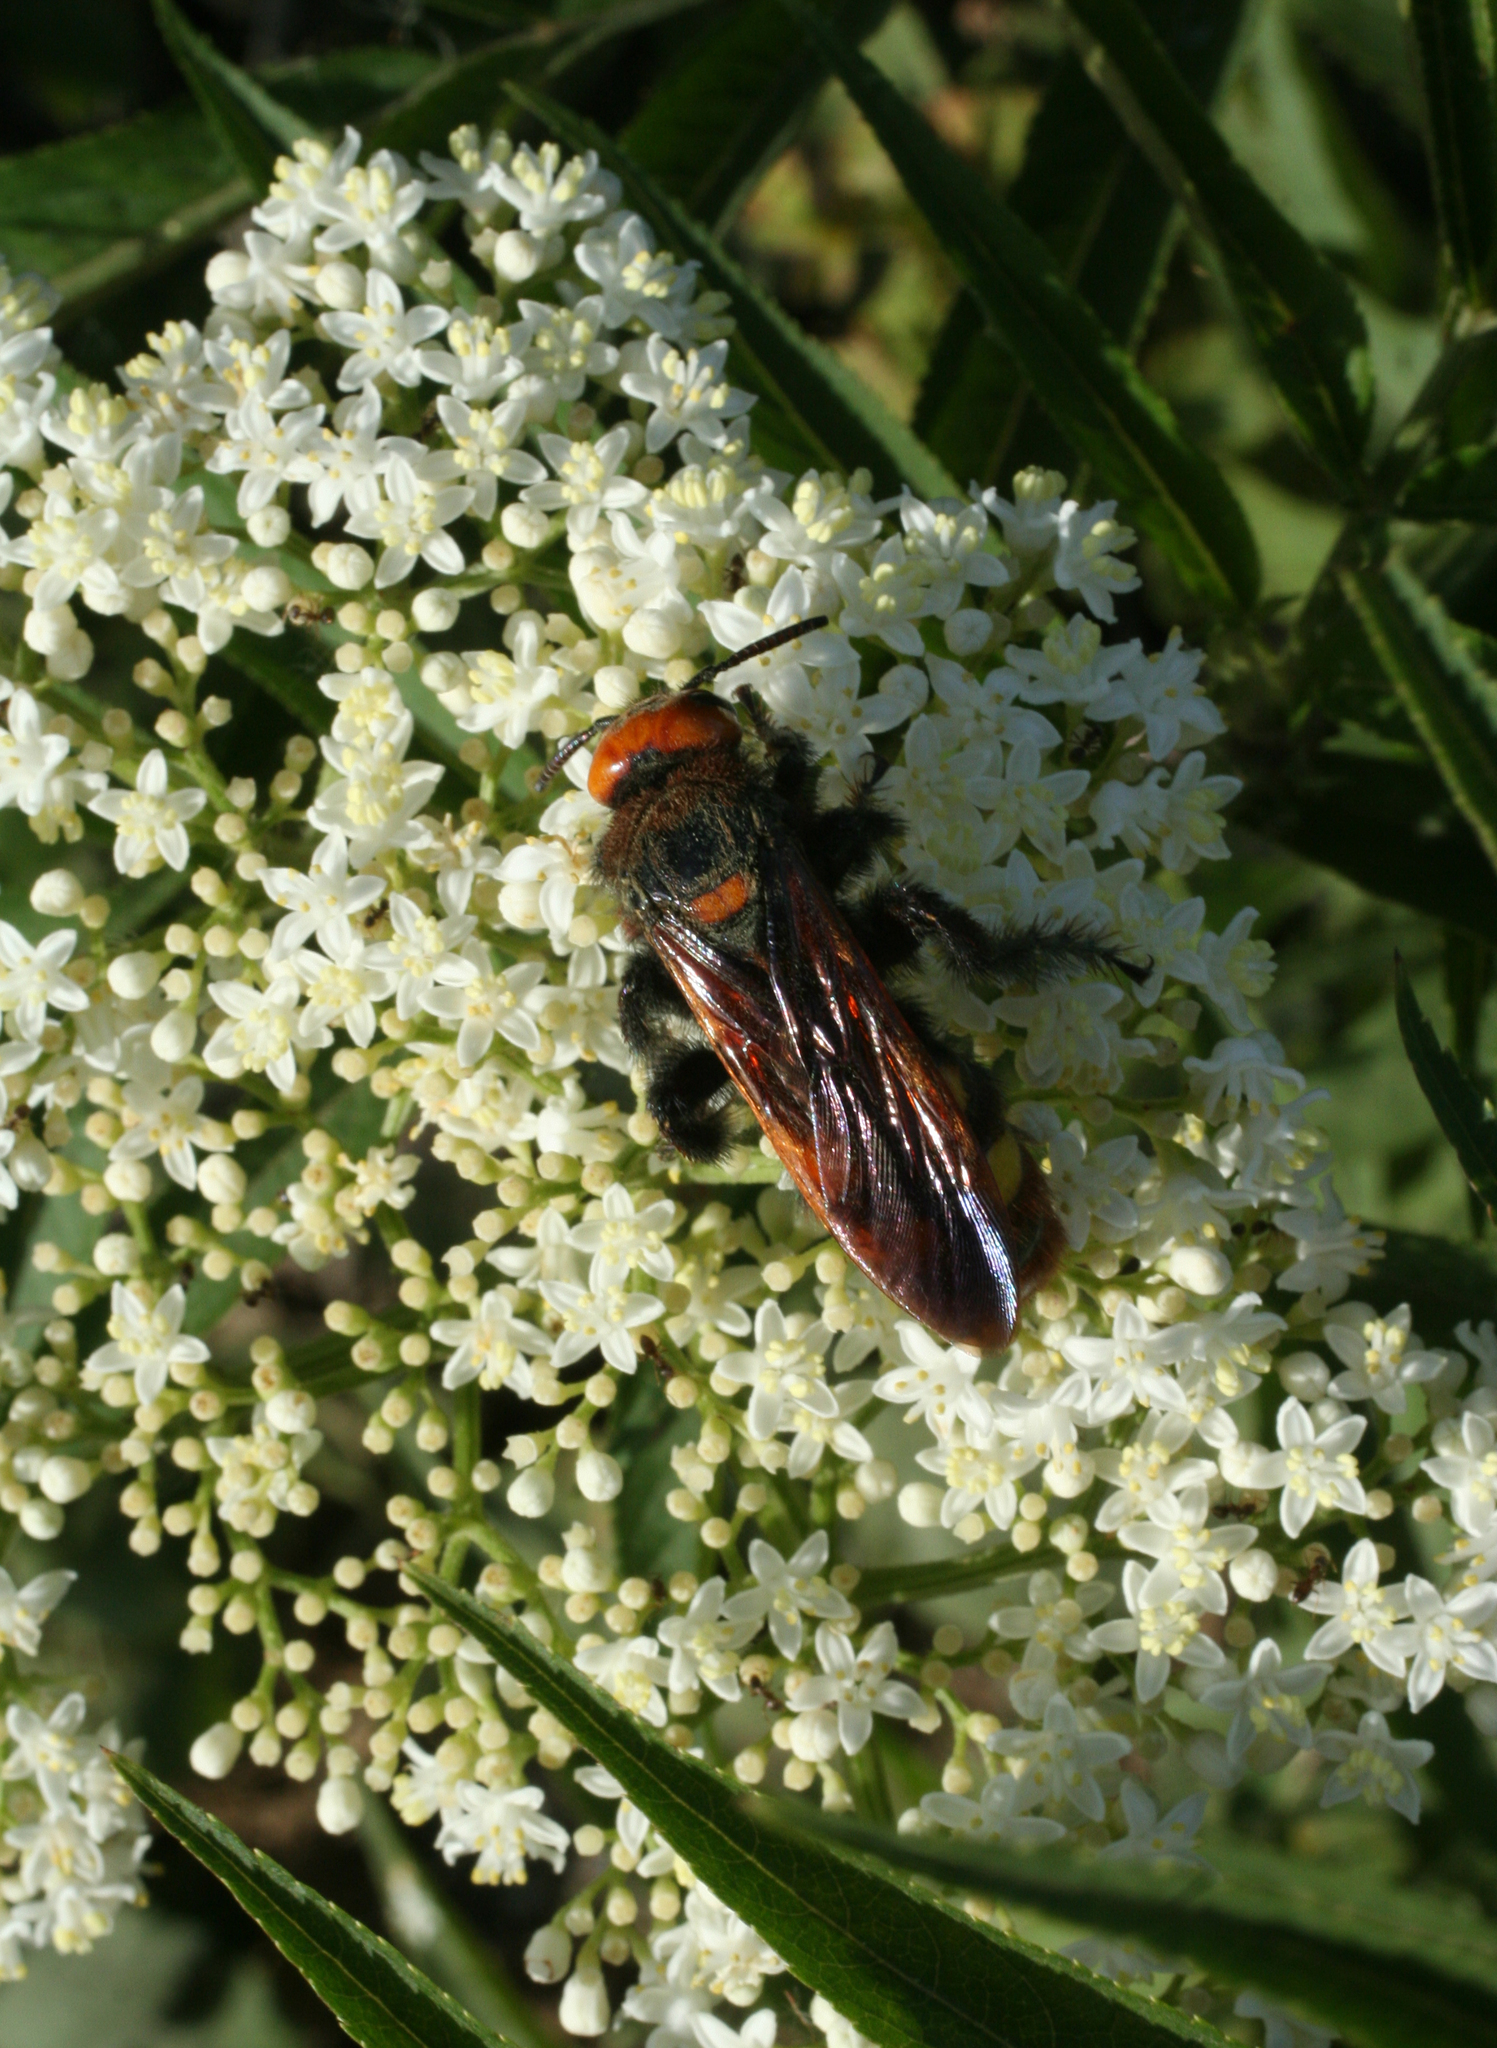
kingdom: Animalia
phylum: Arthropoda
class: Insecta
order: Hymenoptera
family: Scoliidae
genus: Megascolia
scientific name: Megascolia maculata
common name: Mammoth wasp
